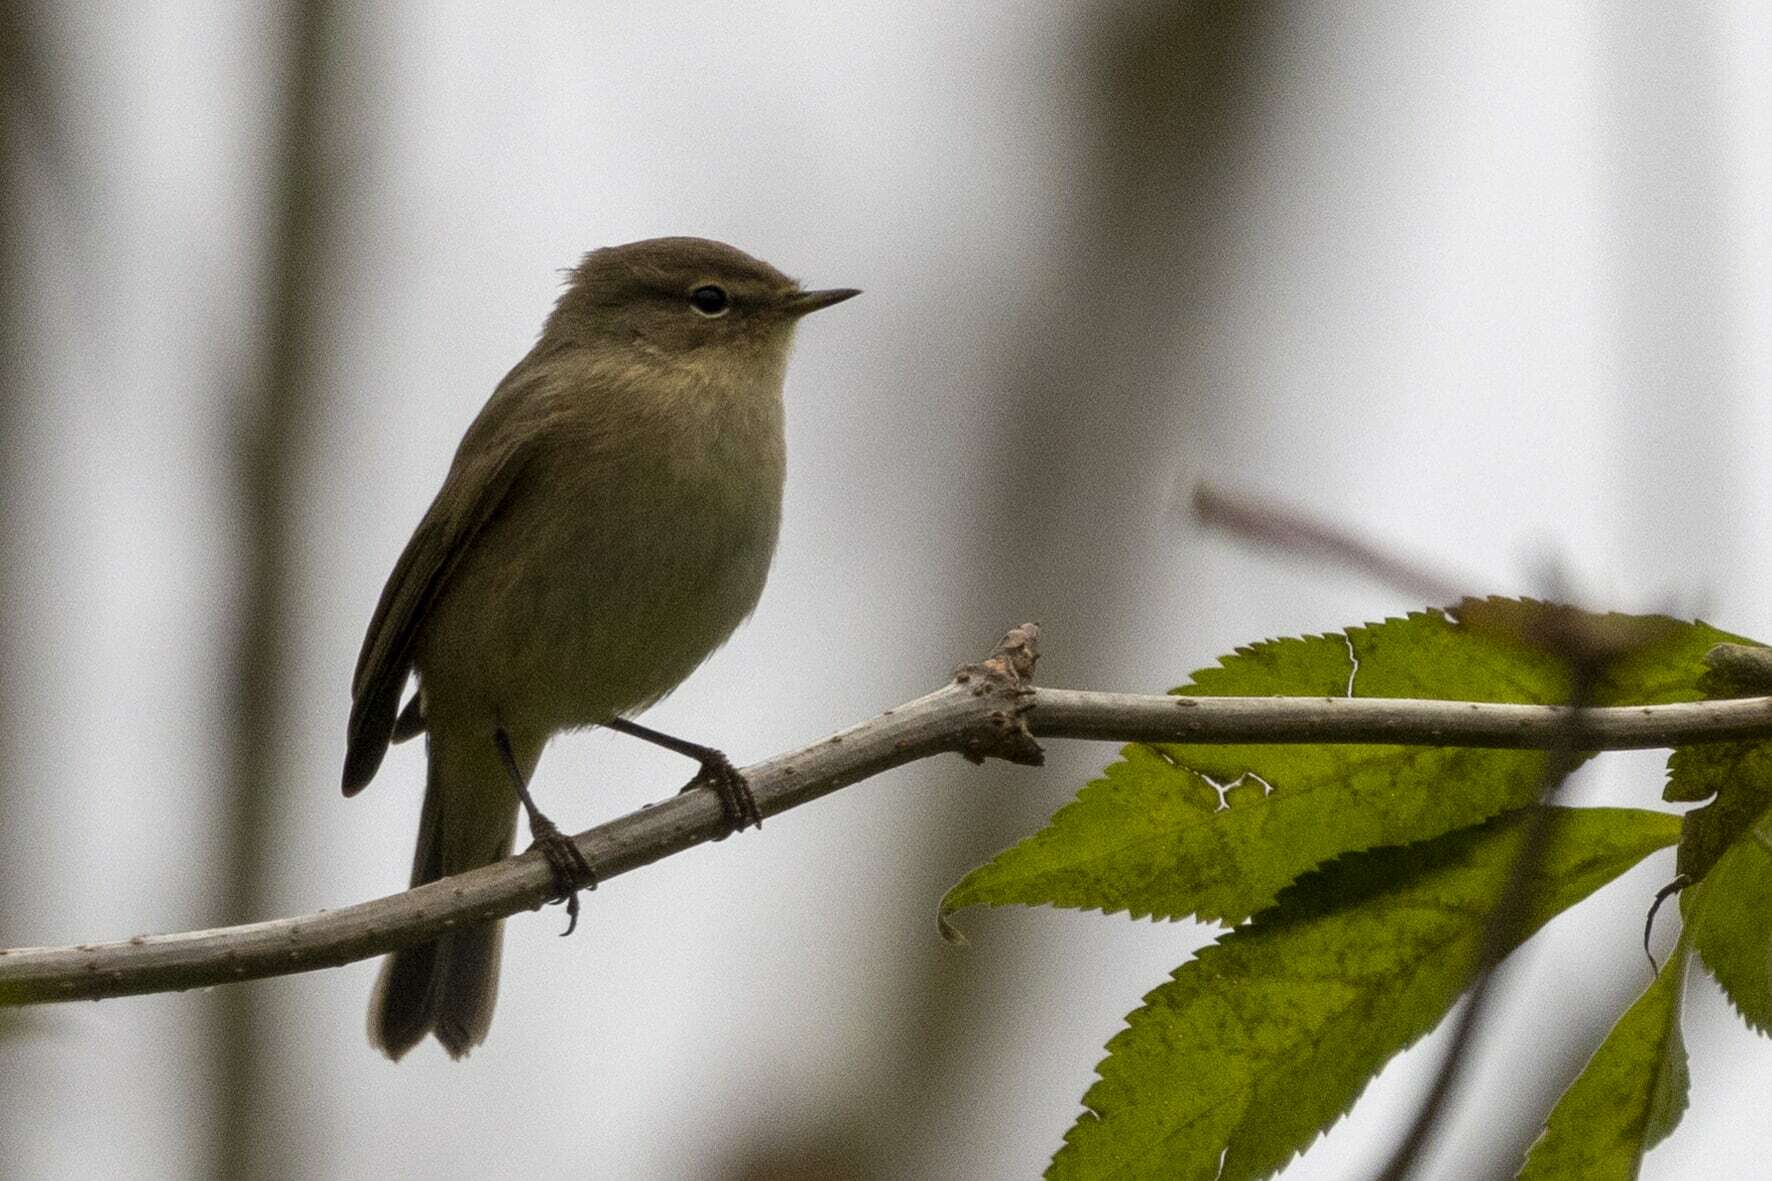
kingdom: Animalia
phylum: Chordata
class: Aves
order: Passeriformes
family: Phylloscopidae
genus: Phylloscopus
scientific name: Phylloscopus collybita
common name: Common chiffchaff
